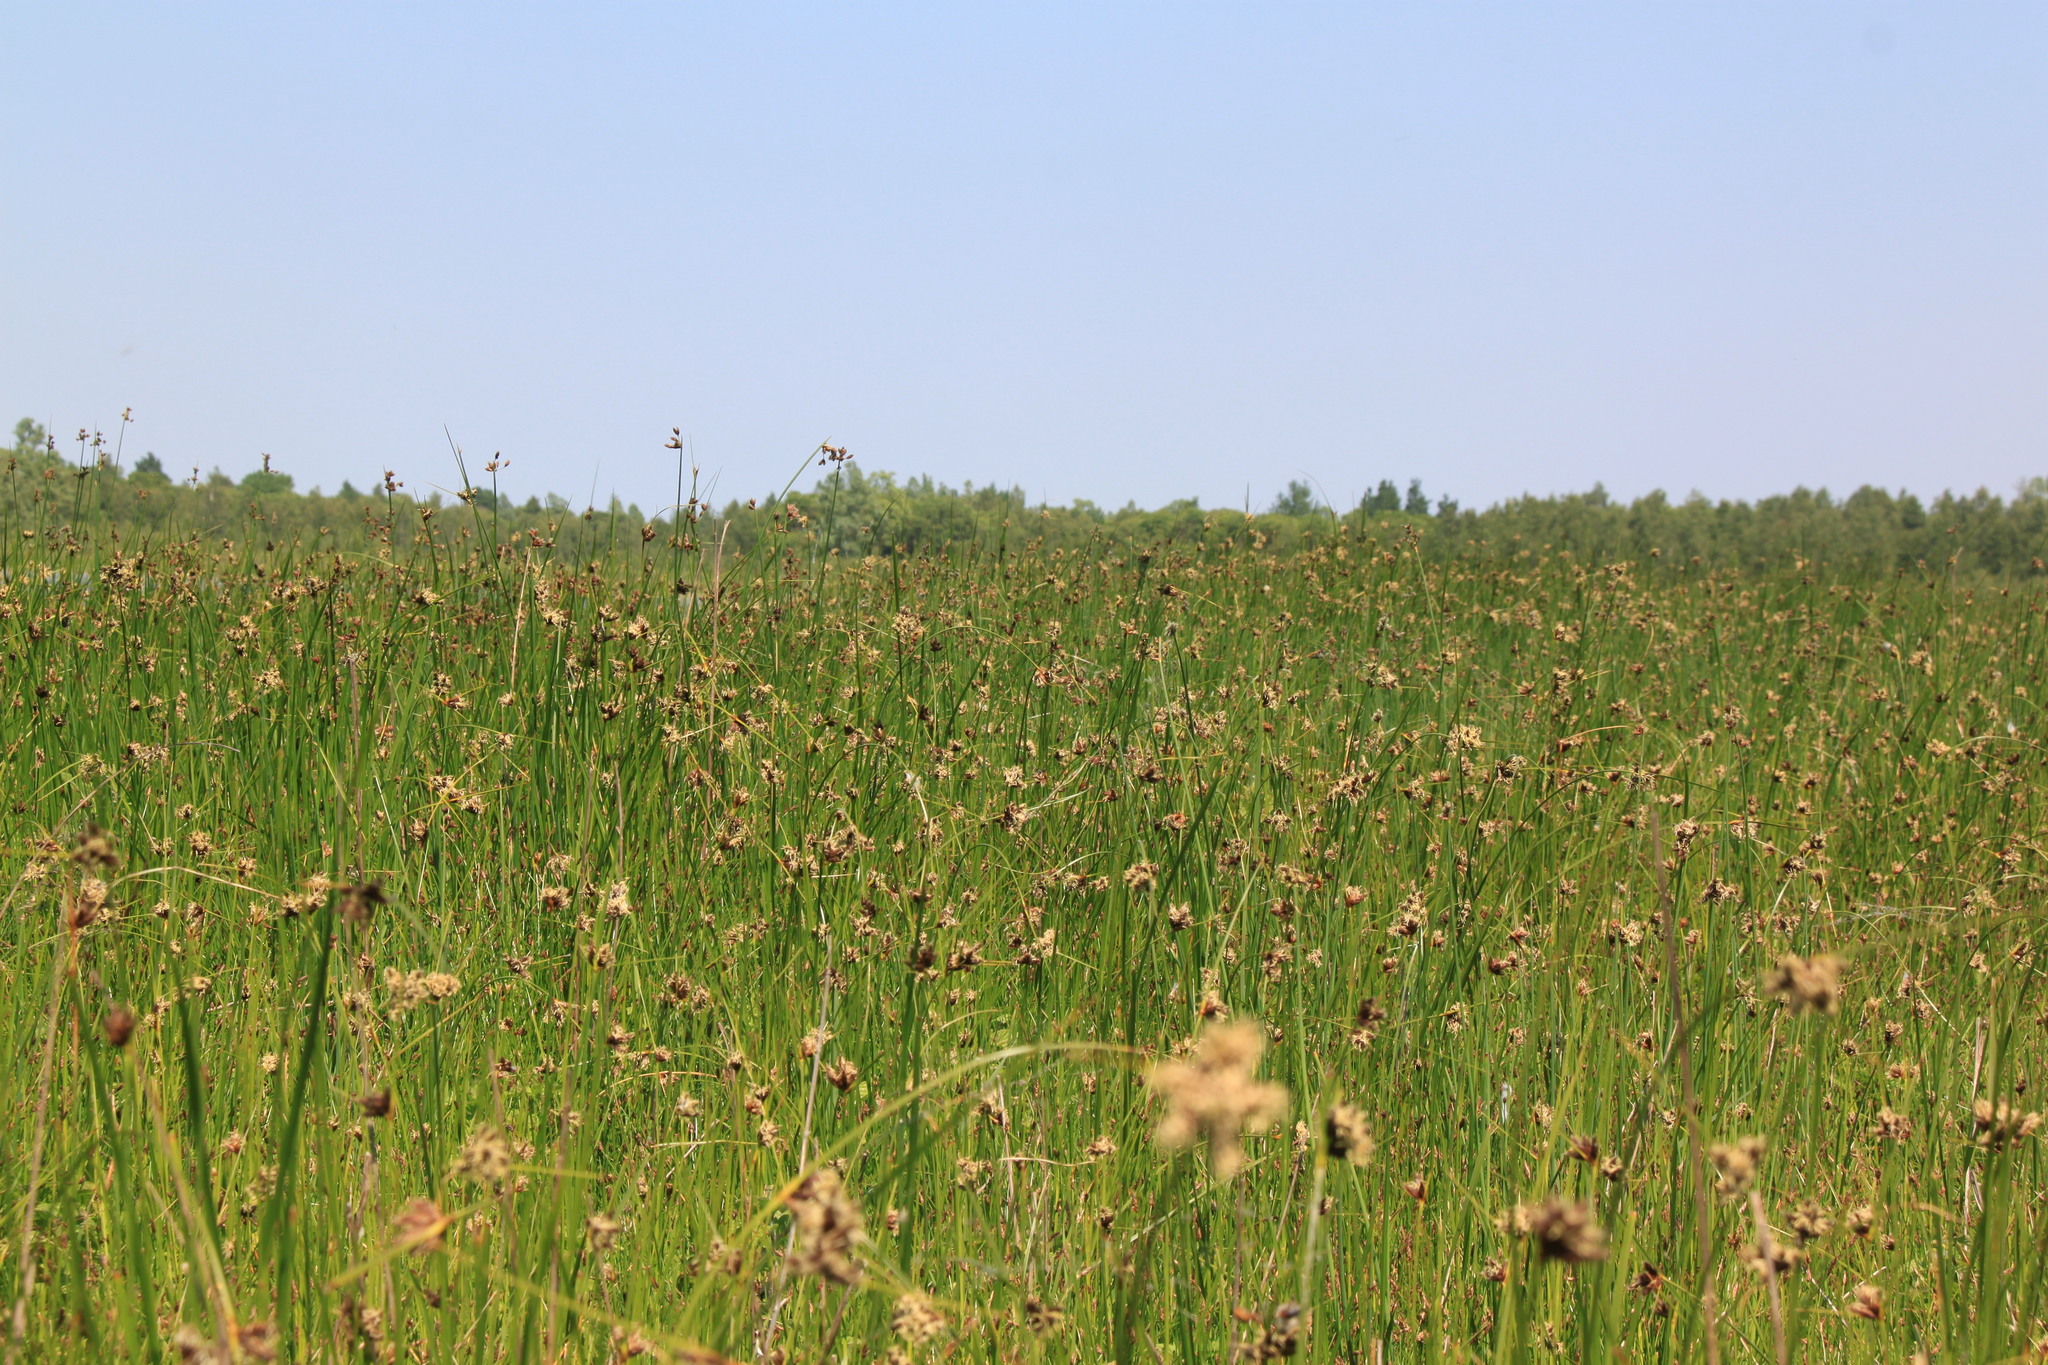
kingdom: Plantae
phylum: Tracheophyta
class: Liliopsida
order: Poales
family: Cyperaceae
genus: Bolboschoenus
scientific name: Bolboschoenus maritimus
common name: Sea club-rush
